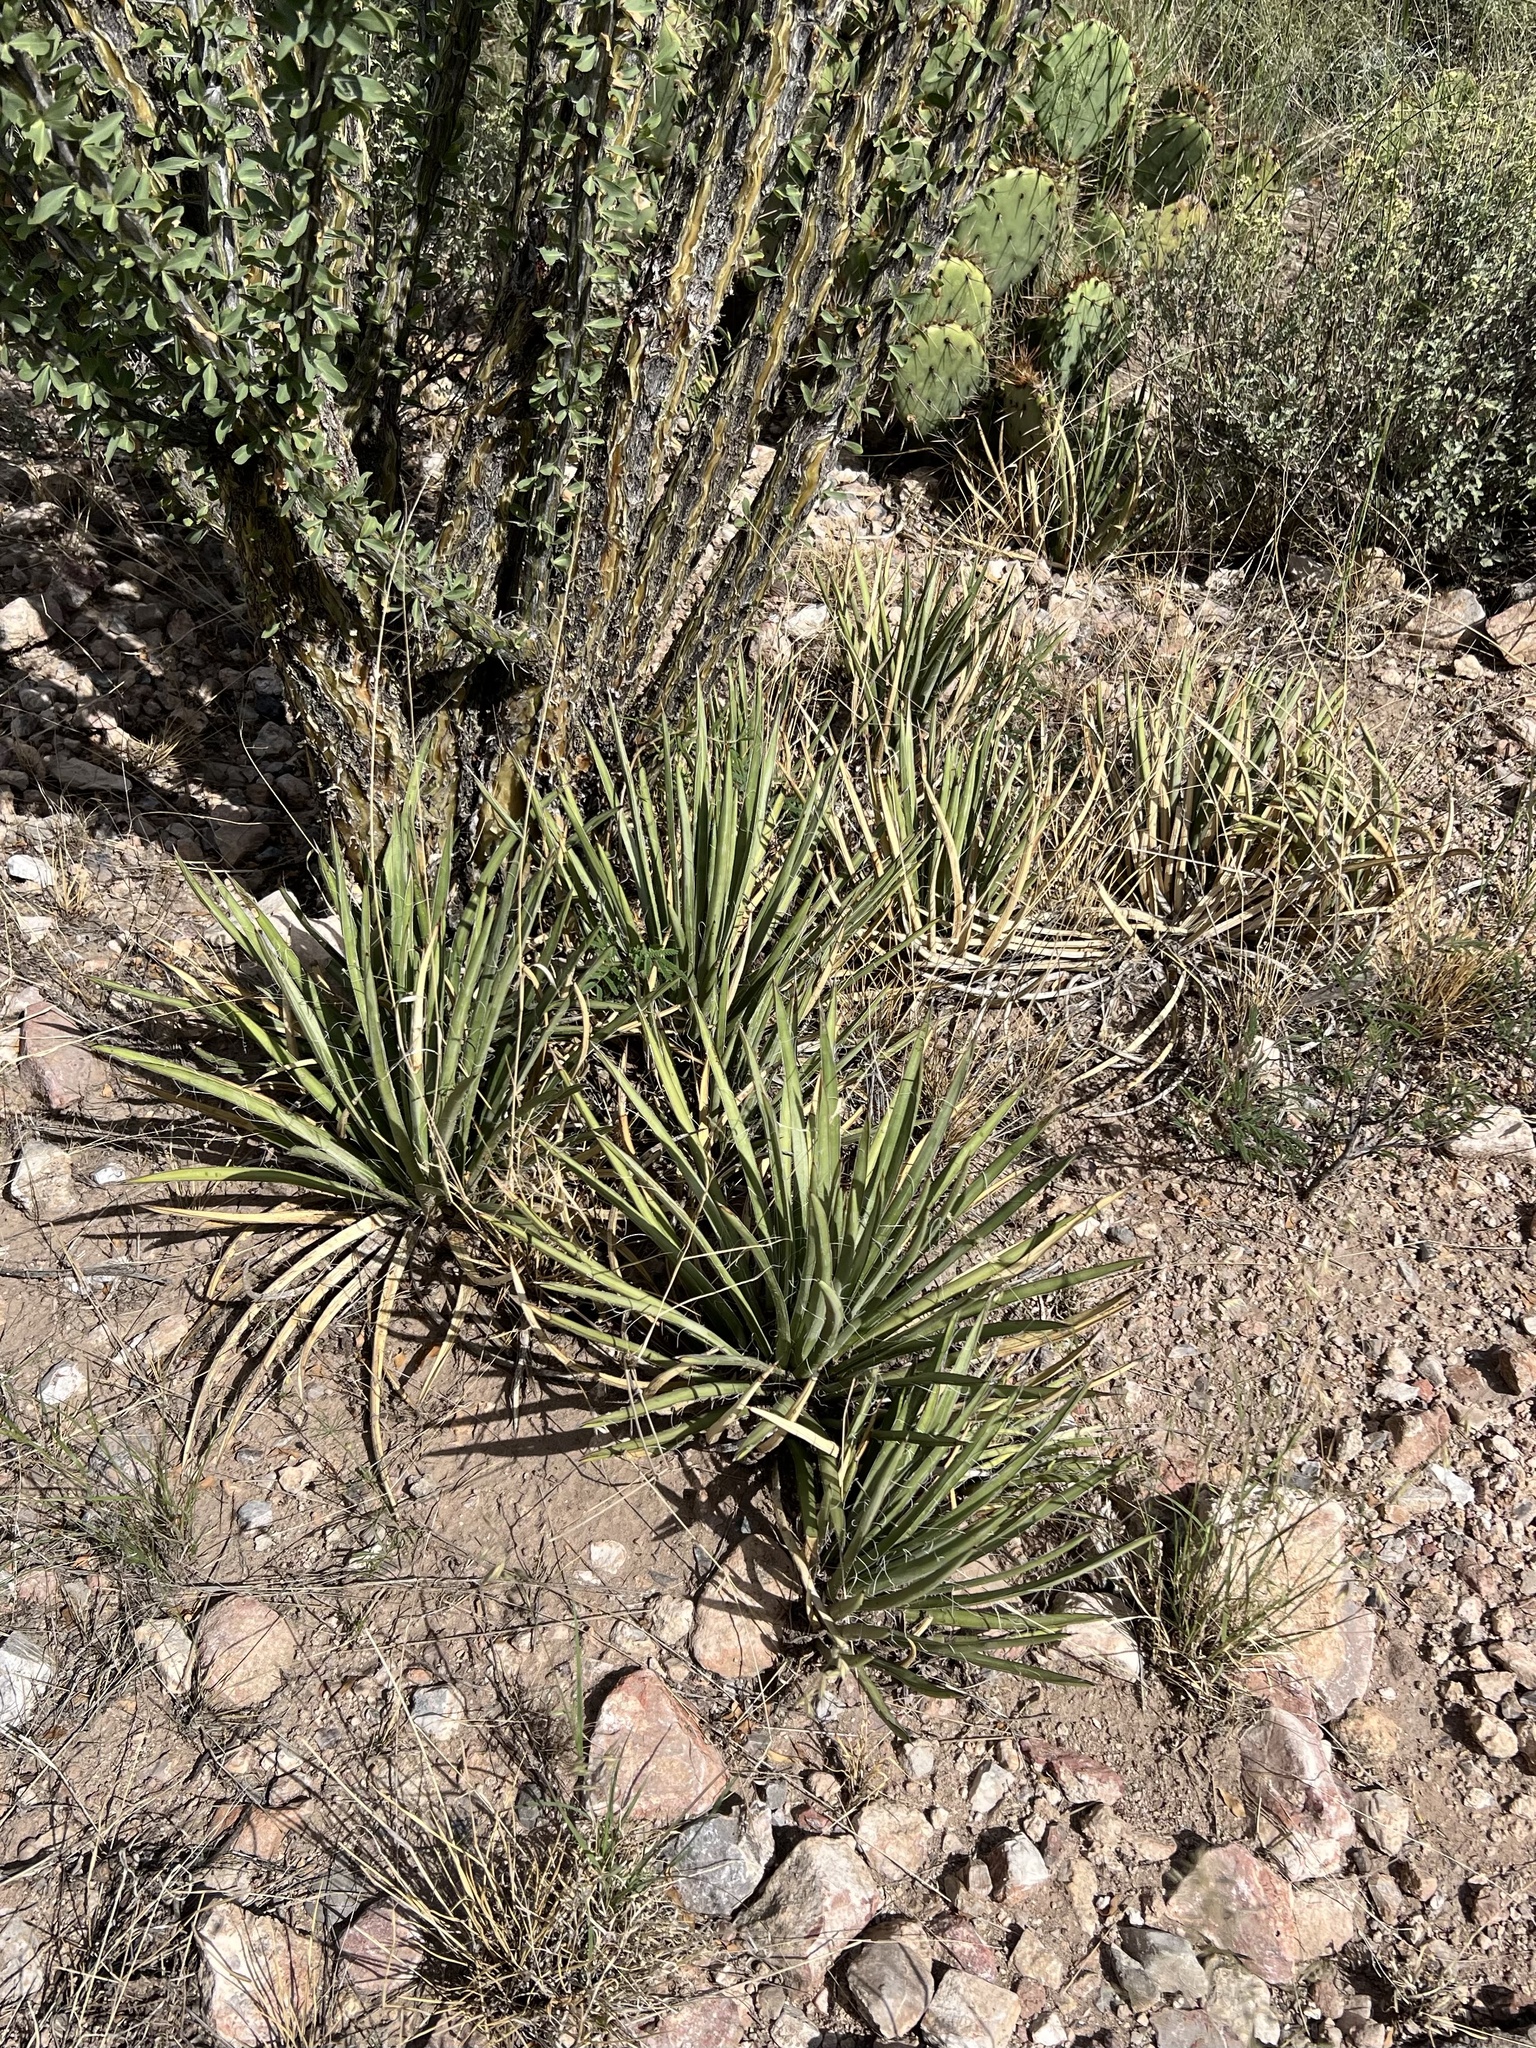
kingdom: Plantae
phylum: Tracheophyta
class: Liliopsida
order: Asparagales
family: Asparagaceae
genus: Agave
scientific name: Agave schottii
